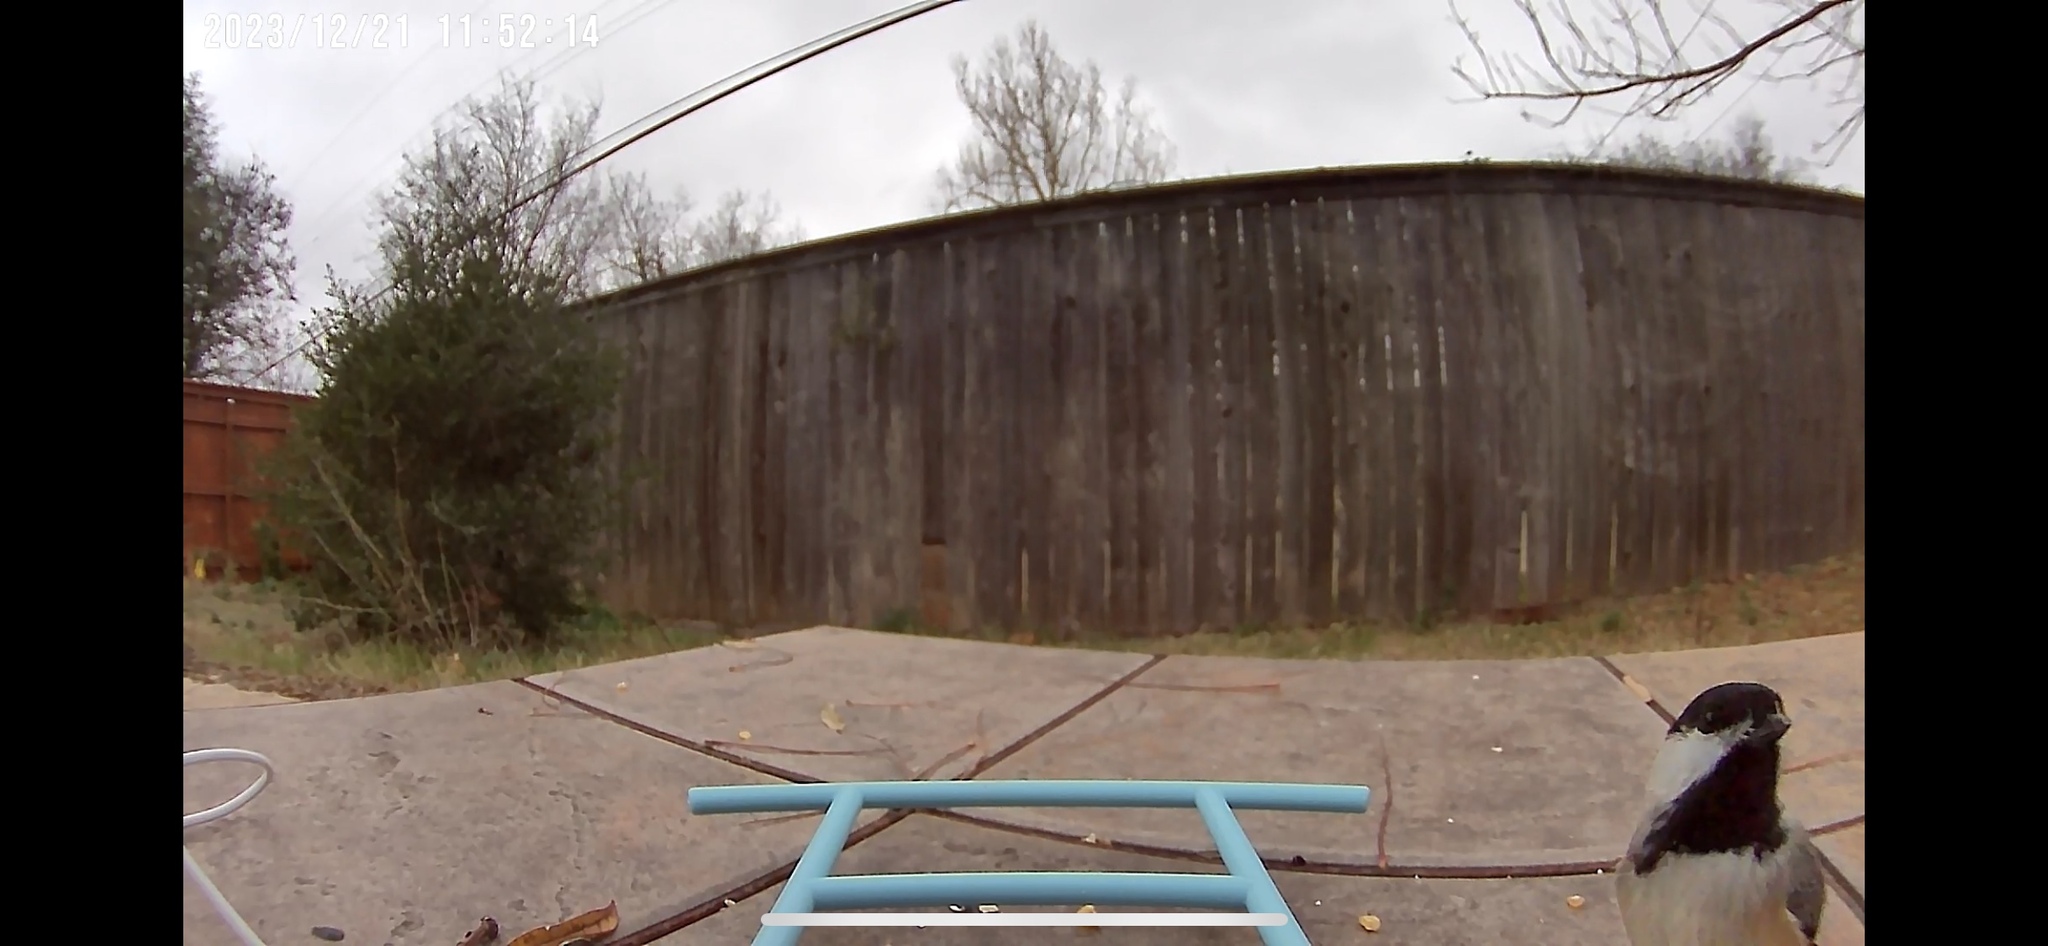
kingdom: Animalia
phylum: Chordata
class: Aves
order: Passeriformes
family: Paridae
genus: Poecile
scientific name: Poecile carolinensis
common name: Carolina chickadee
